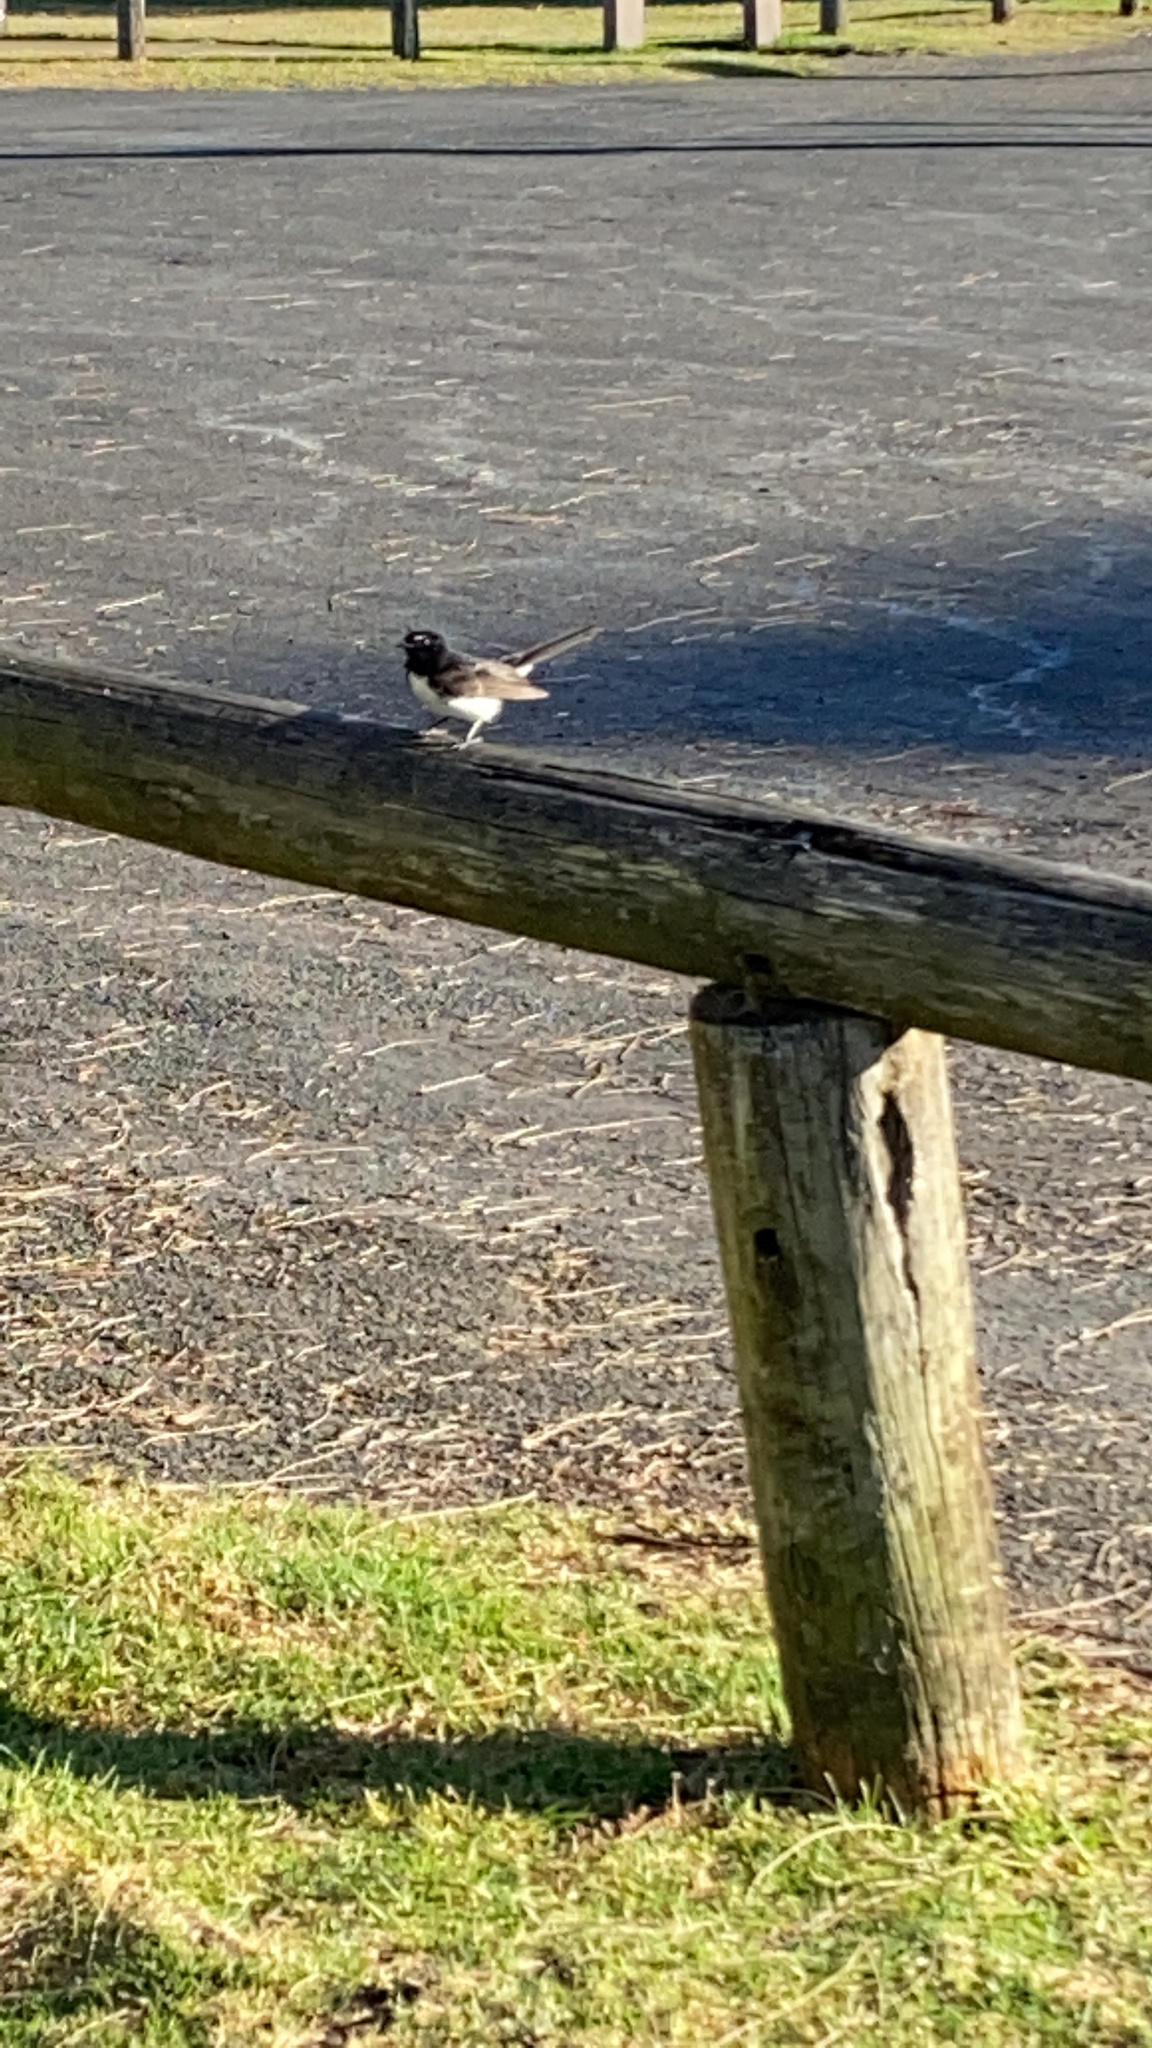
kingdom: Animalia
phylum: Chordata
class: Aves
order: Passeriformes
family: Rhipiduridae
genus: Rhipidura
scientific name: Rhipidura leucophrys
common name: Willie wagtail
